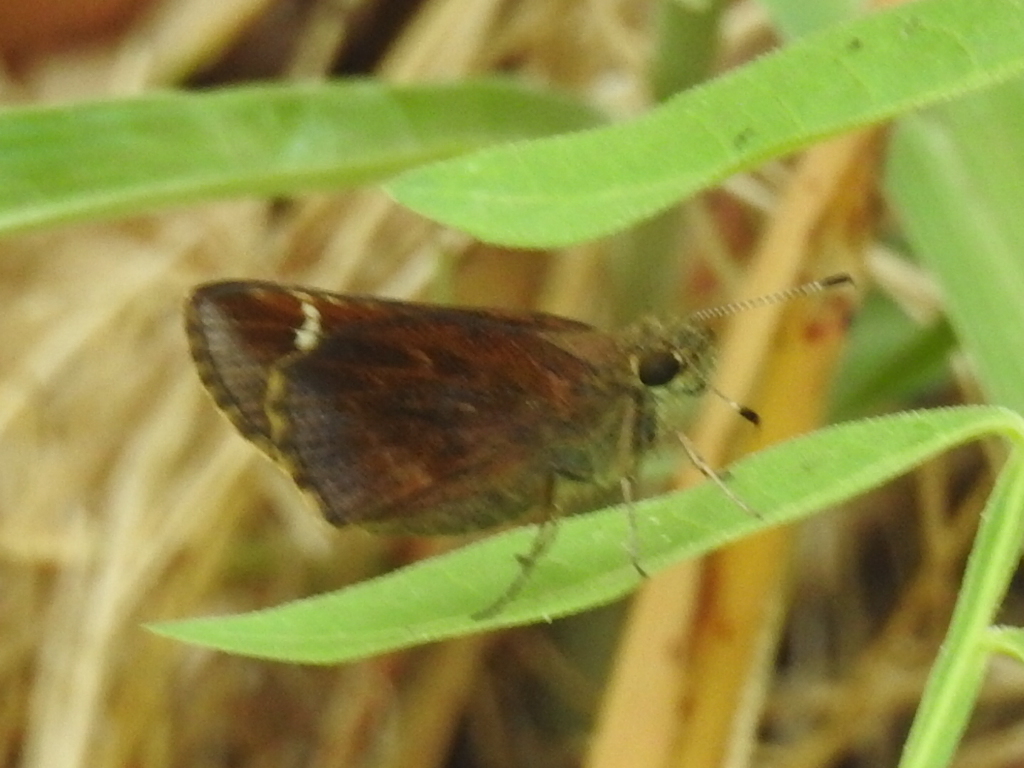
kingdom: Animalia
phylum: Arthropoda
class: Insecta
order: Lepidoptera
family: Hesperiidae
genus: Lerema
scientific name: Lerema accius
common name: Clouded skipper
